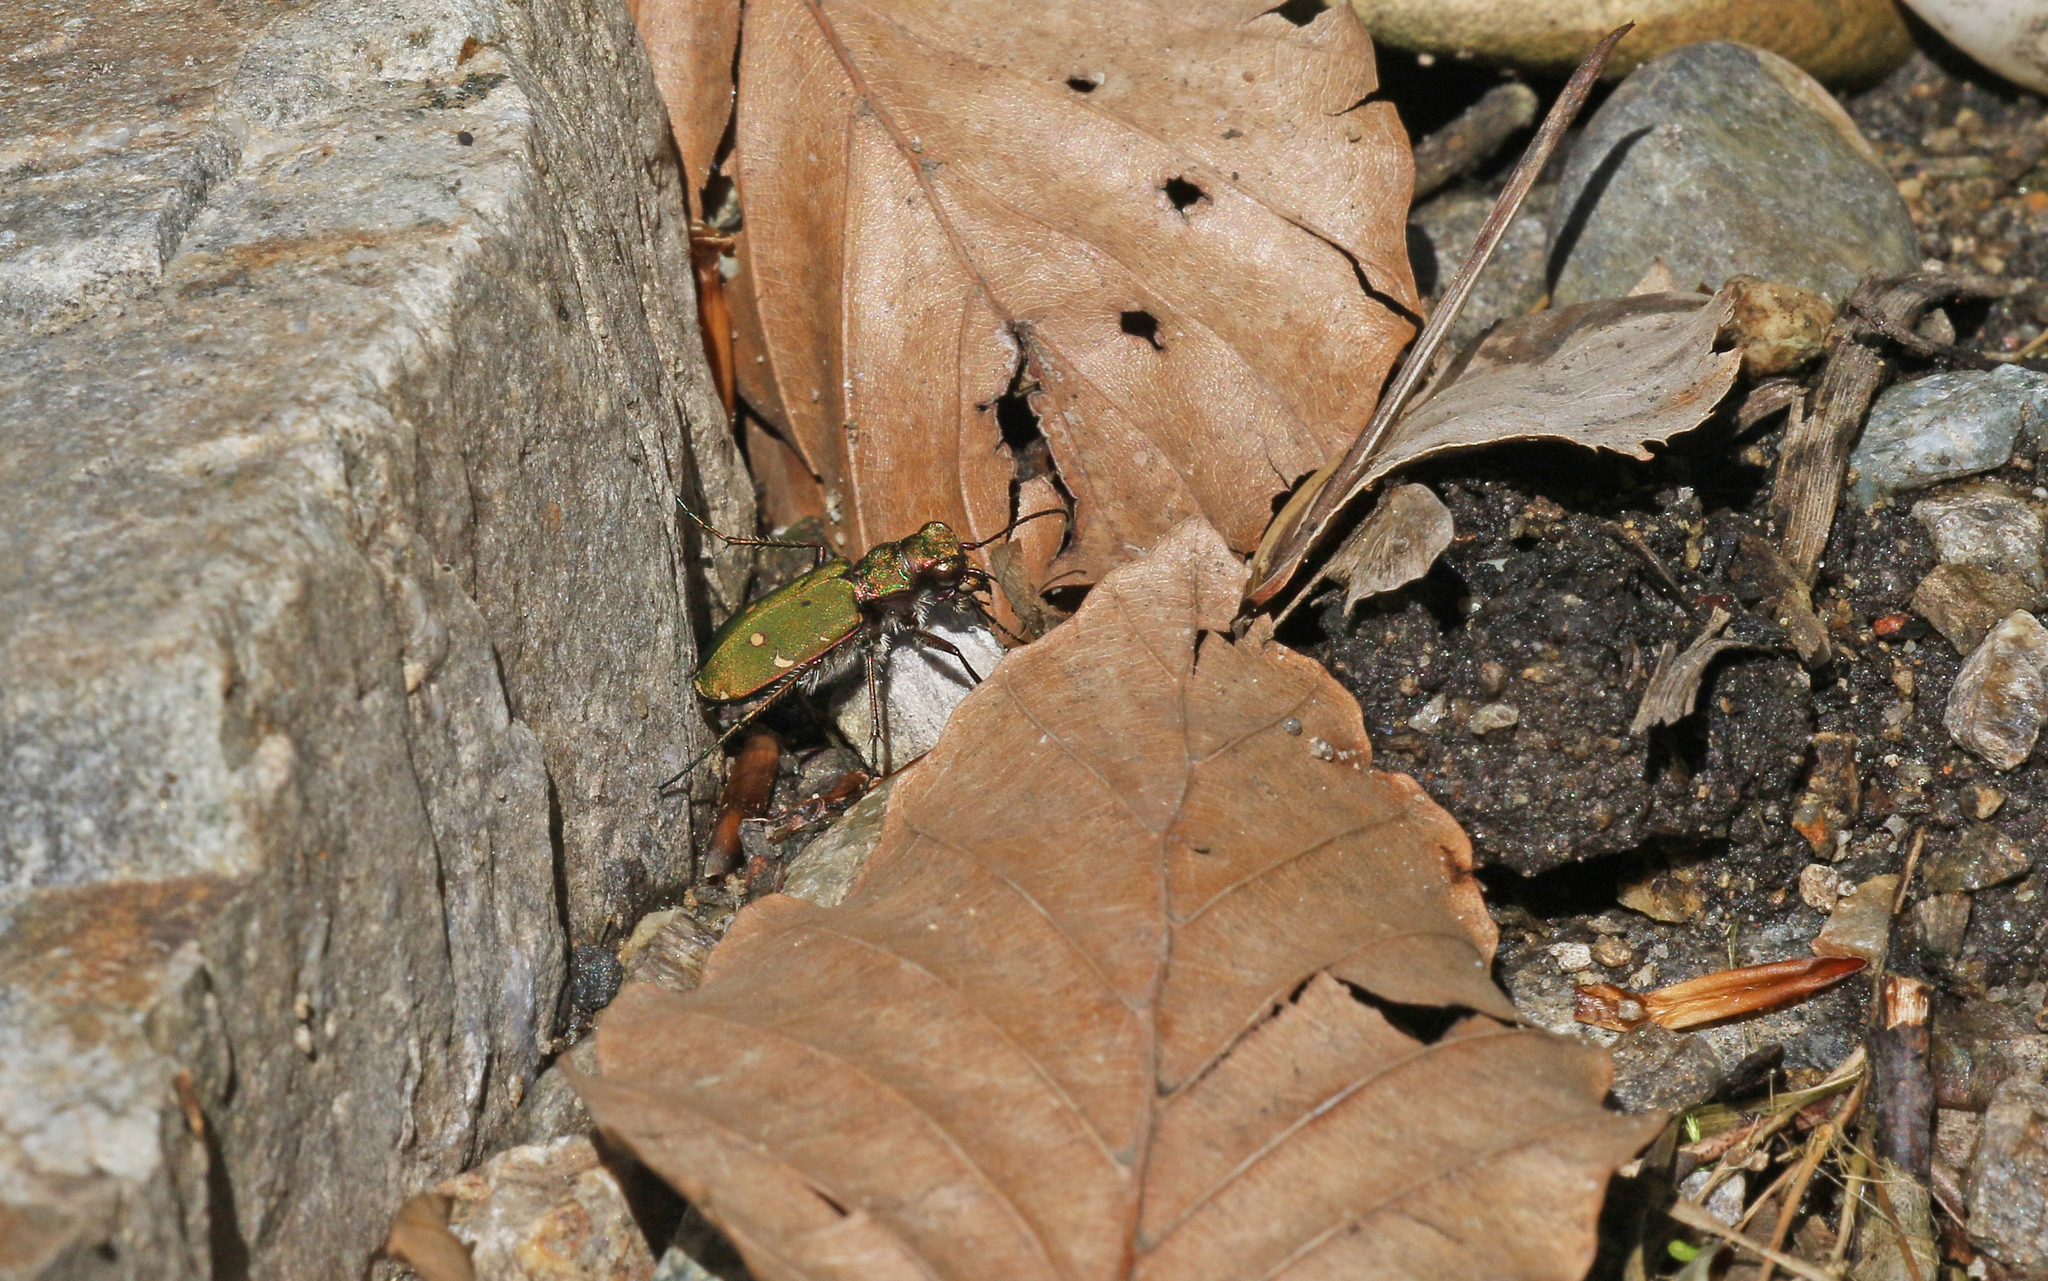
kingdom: Animalia
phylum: Arthropoda
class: Insecta
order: Coleoptera
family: Carabidae
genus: Cicindela
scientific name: Cicindela campestris
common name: Common tiger beetle
